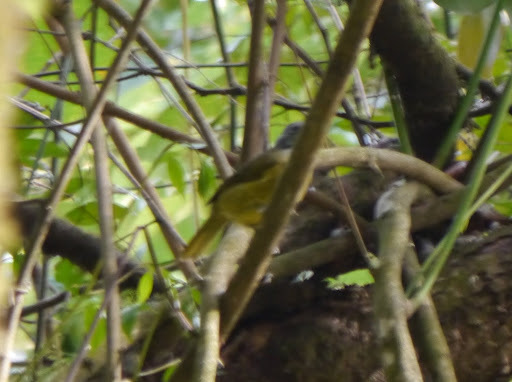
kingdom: Animalia
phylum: Chordata
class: Aves
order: Passeriformes
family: Pycnonotidae
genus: Arizelocichla
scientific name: Arizelocichla tephrolaema
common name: Western greenbul
